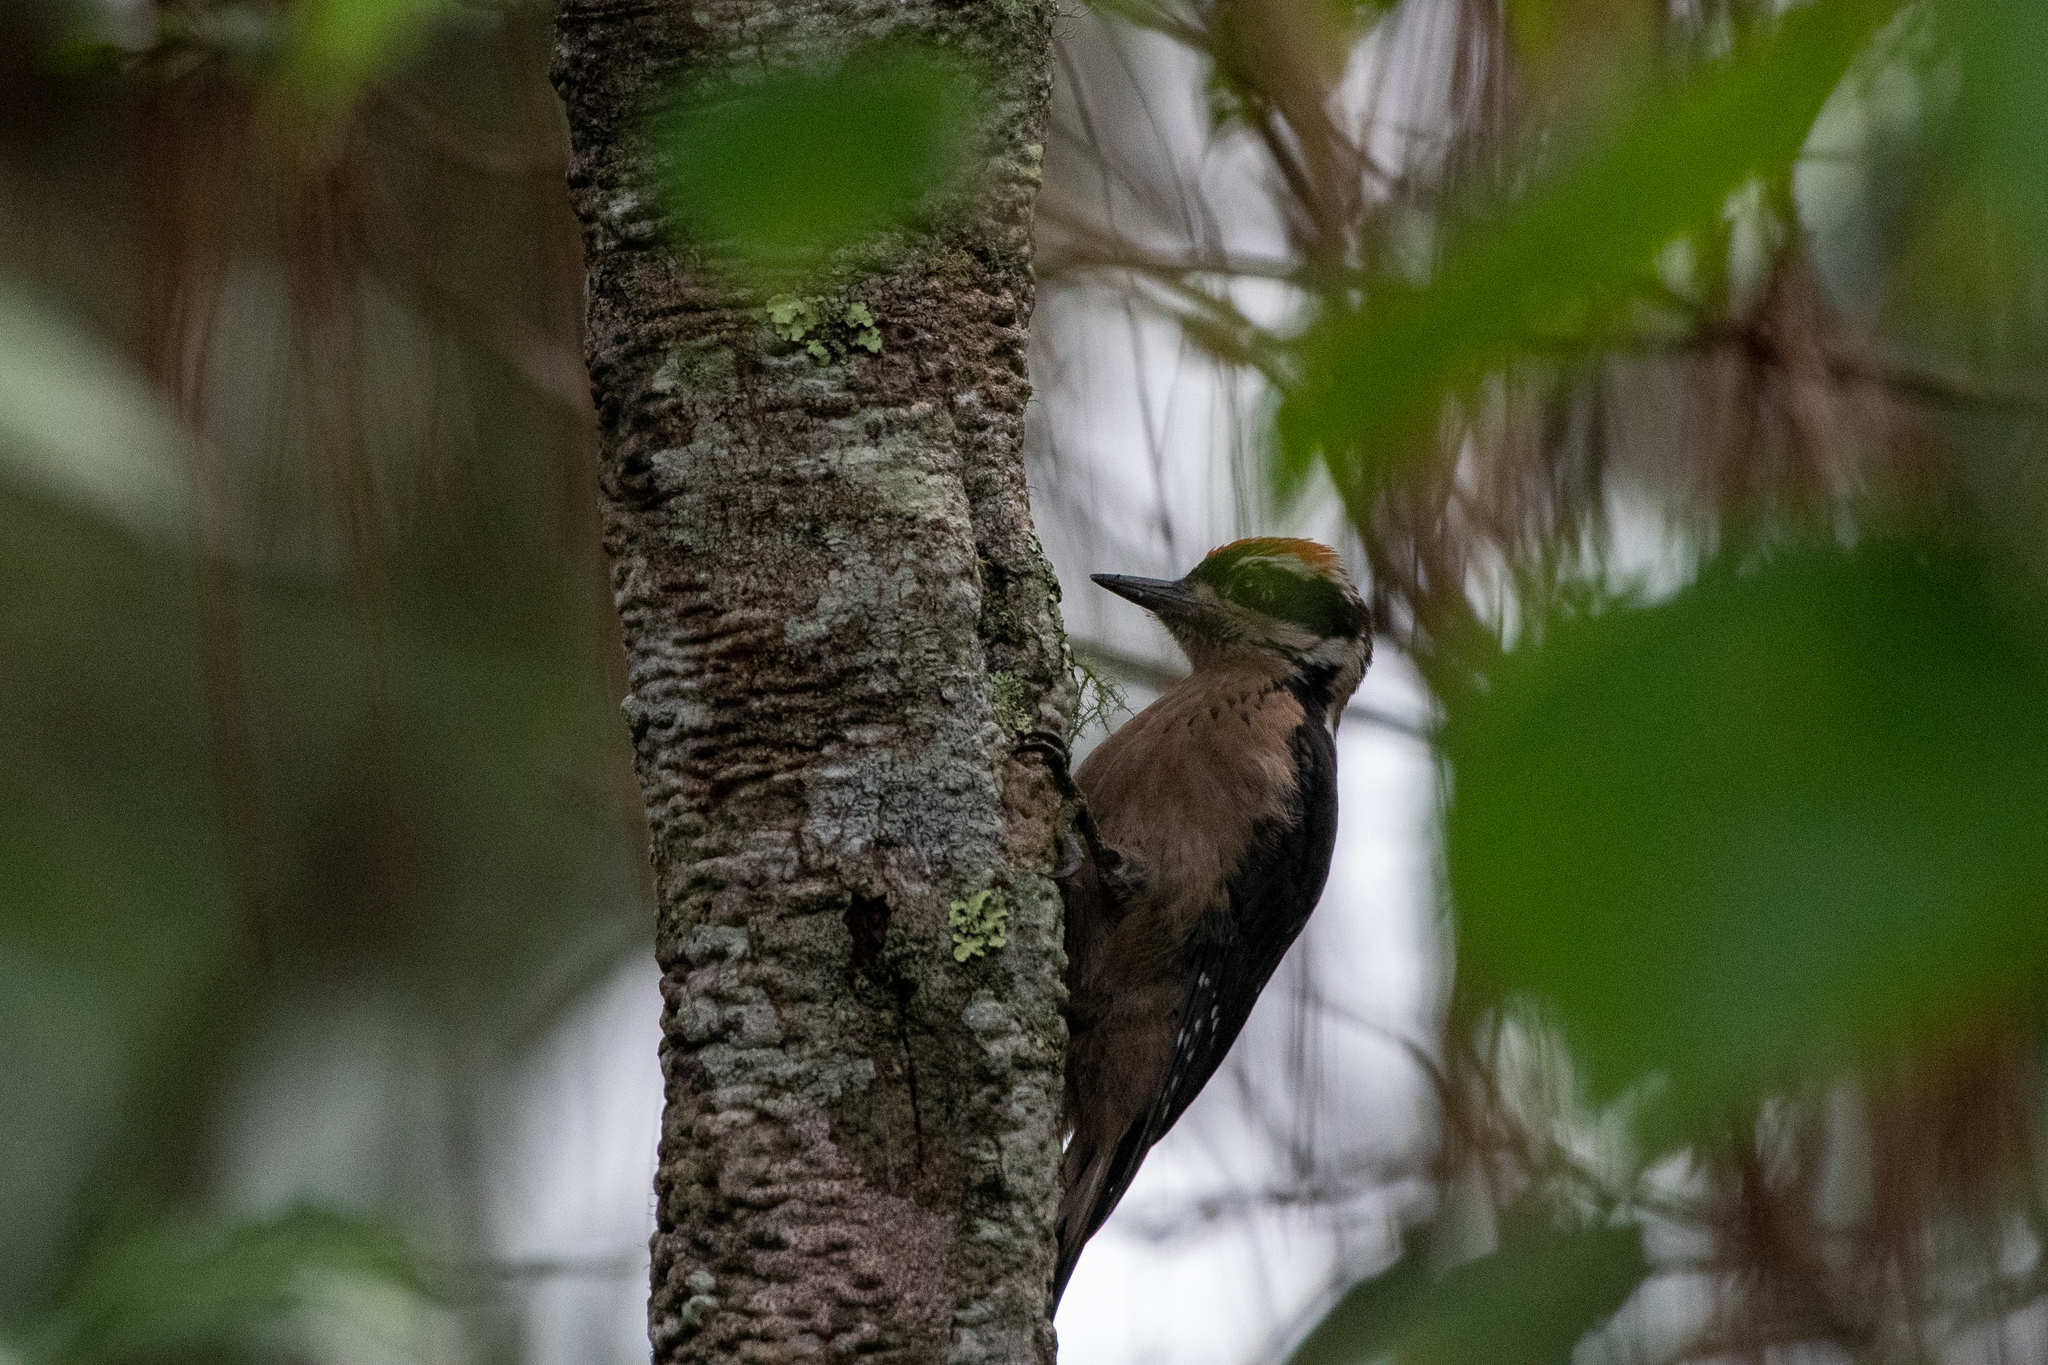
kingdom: Animalia
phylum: Chordata
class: Aves
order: Piciformes
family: Picidae
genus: Leuconotopicus
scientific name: Leuconotopicus villosus
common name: Hairy woodpecker
